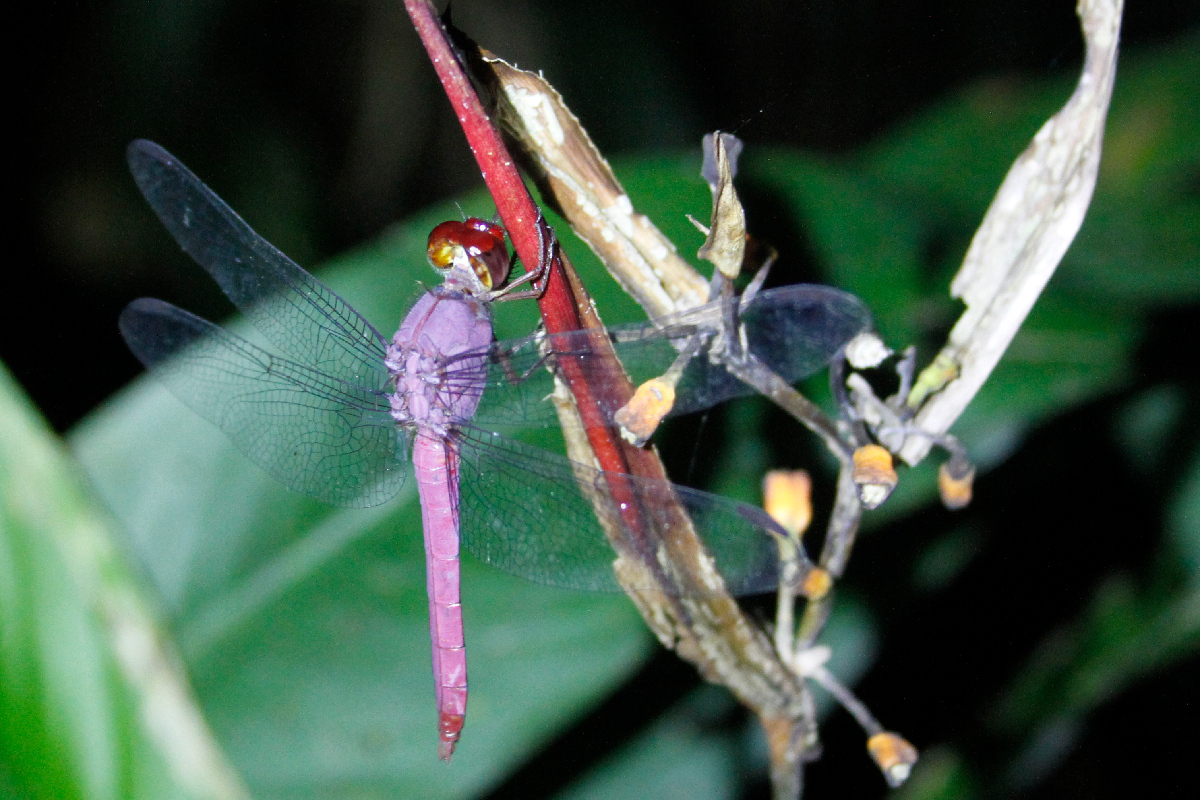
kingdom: Animalia
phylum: Arthropoda
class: Insecta
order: Odonata
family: Libellulidae
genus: Orthemis
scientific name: Orthemis discolor
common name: Carmine skimmer
